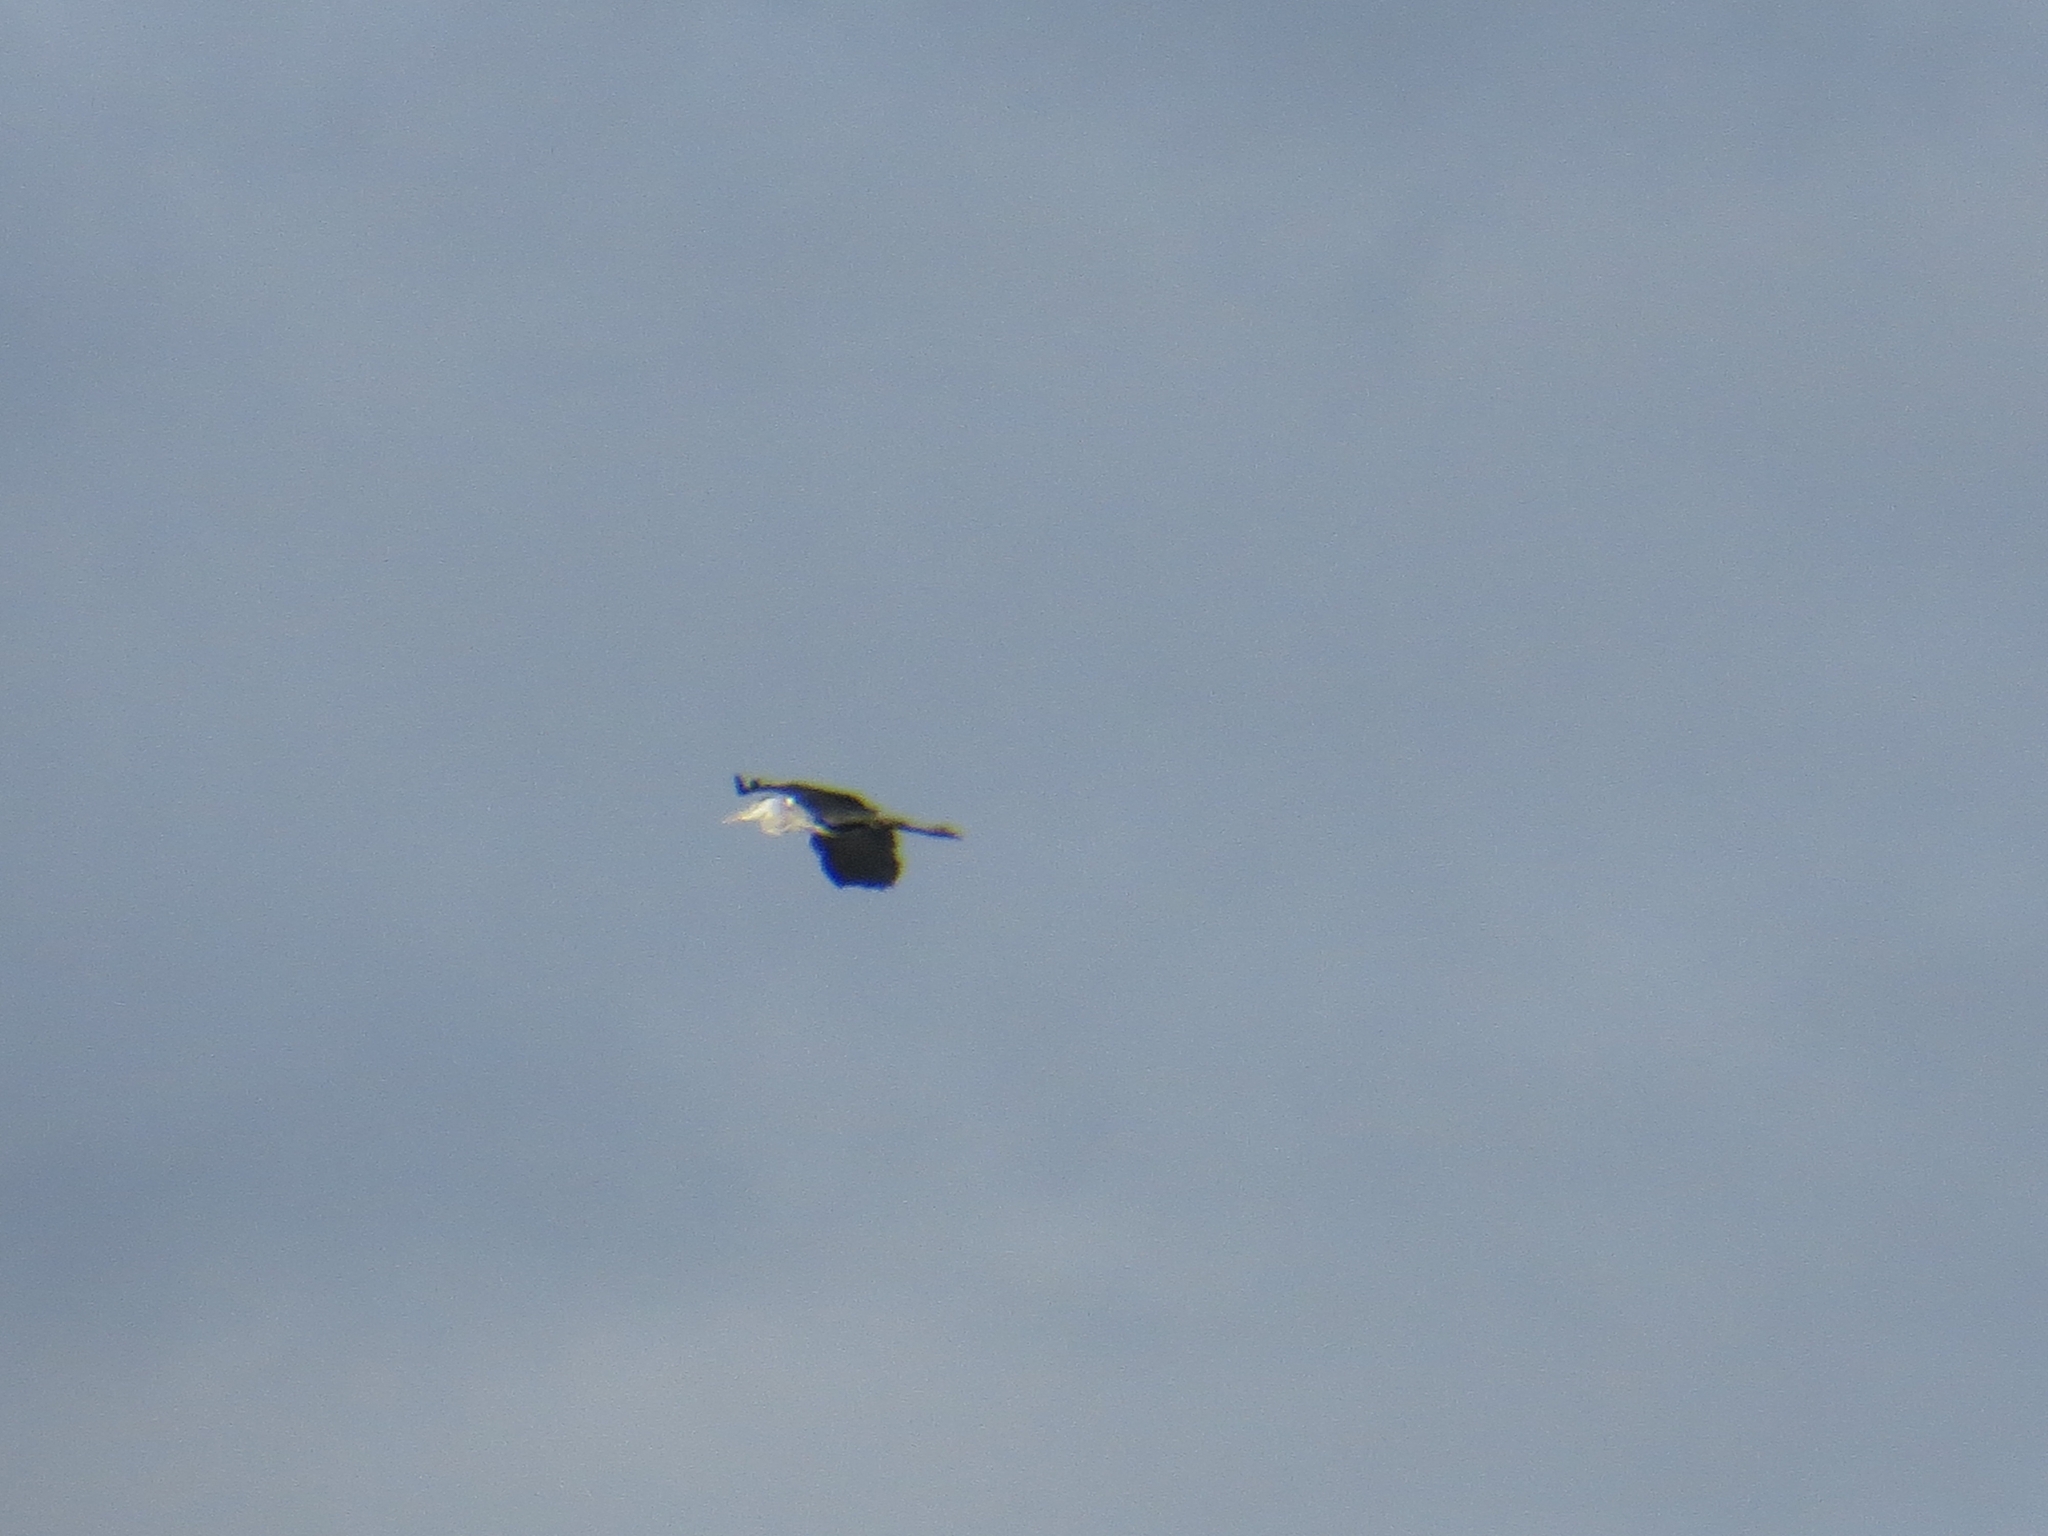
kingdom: Animalia
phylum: Chordata
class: Aves
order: Pelecaniformes
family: Ardeidae
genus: Ardea
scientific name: Ardea cinerea
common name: Grey heron
